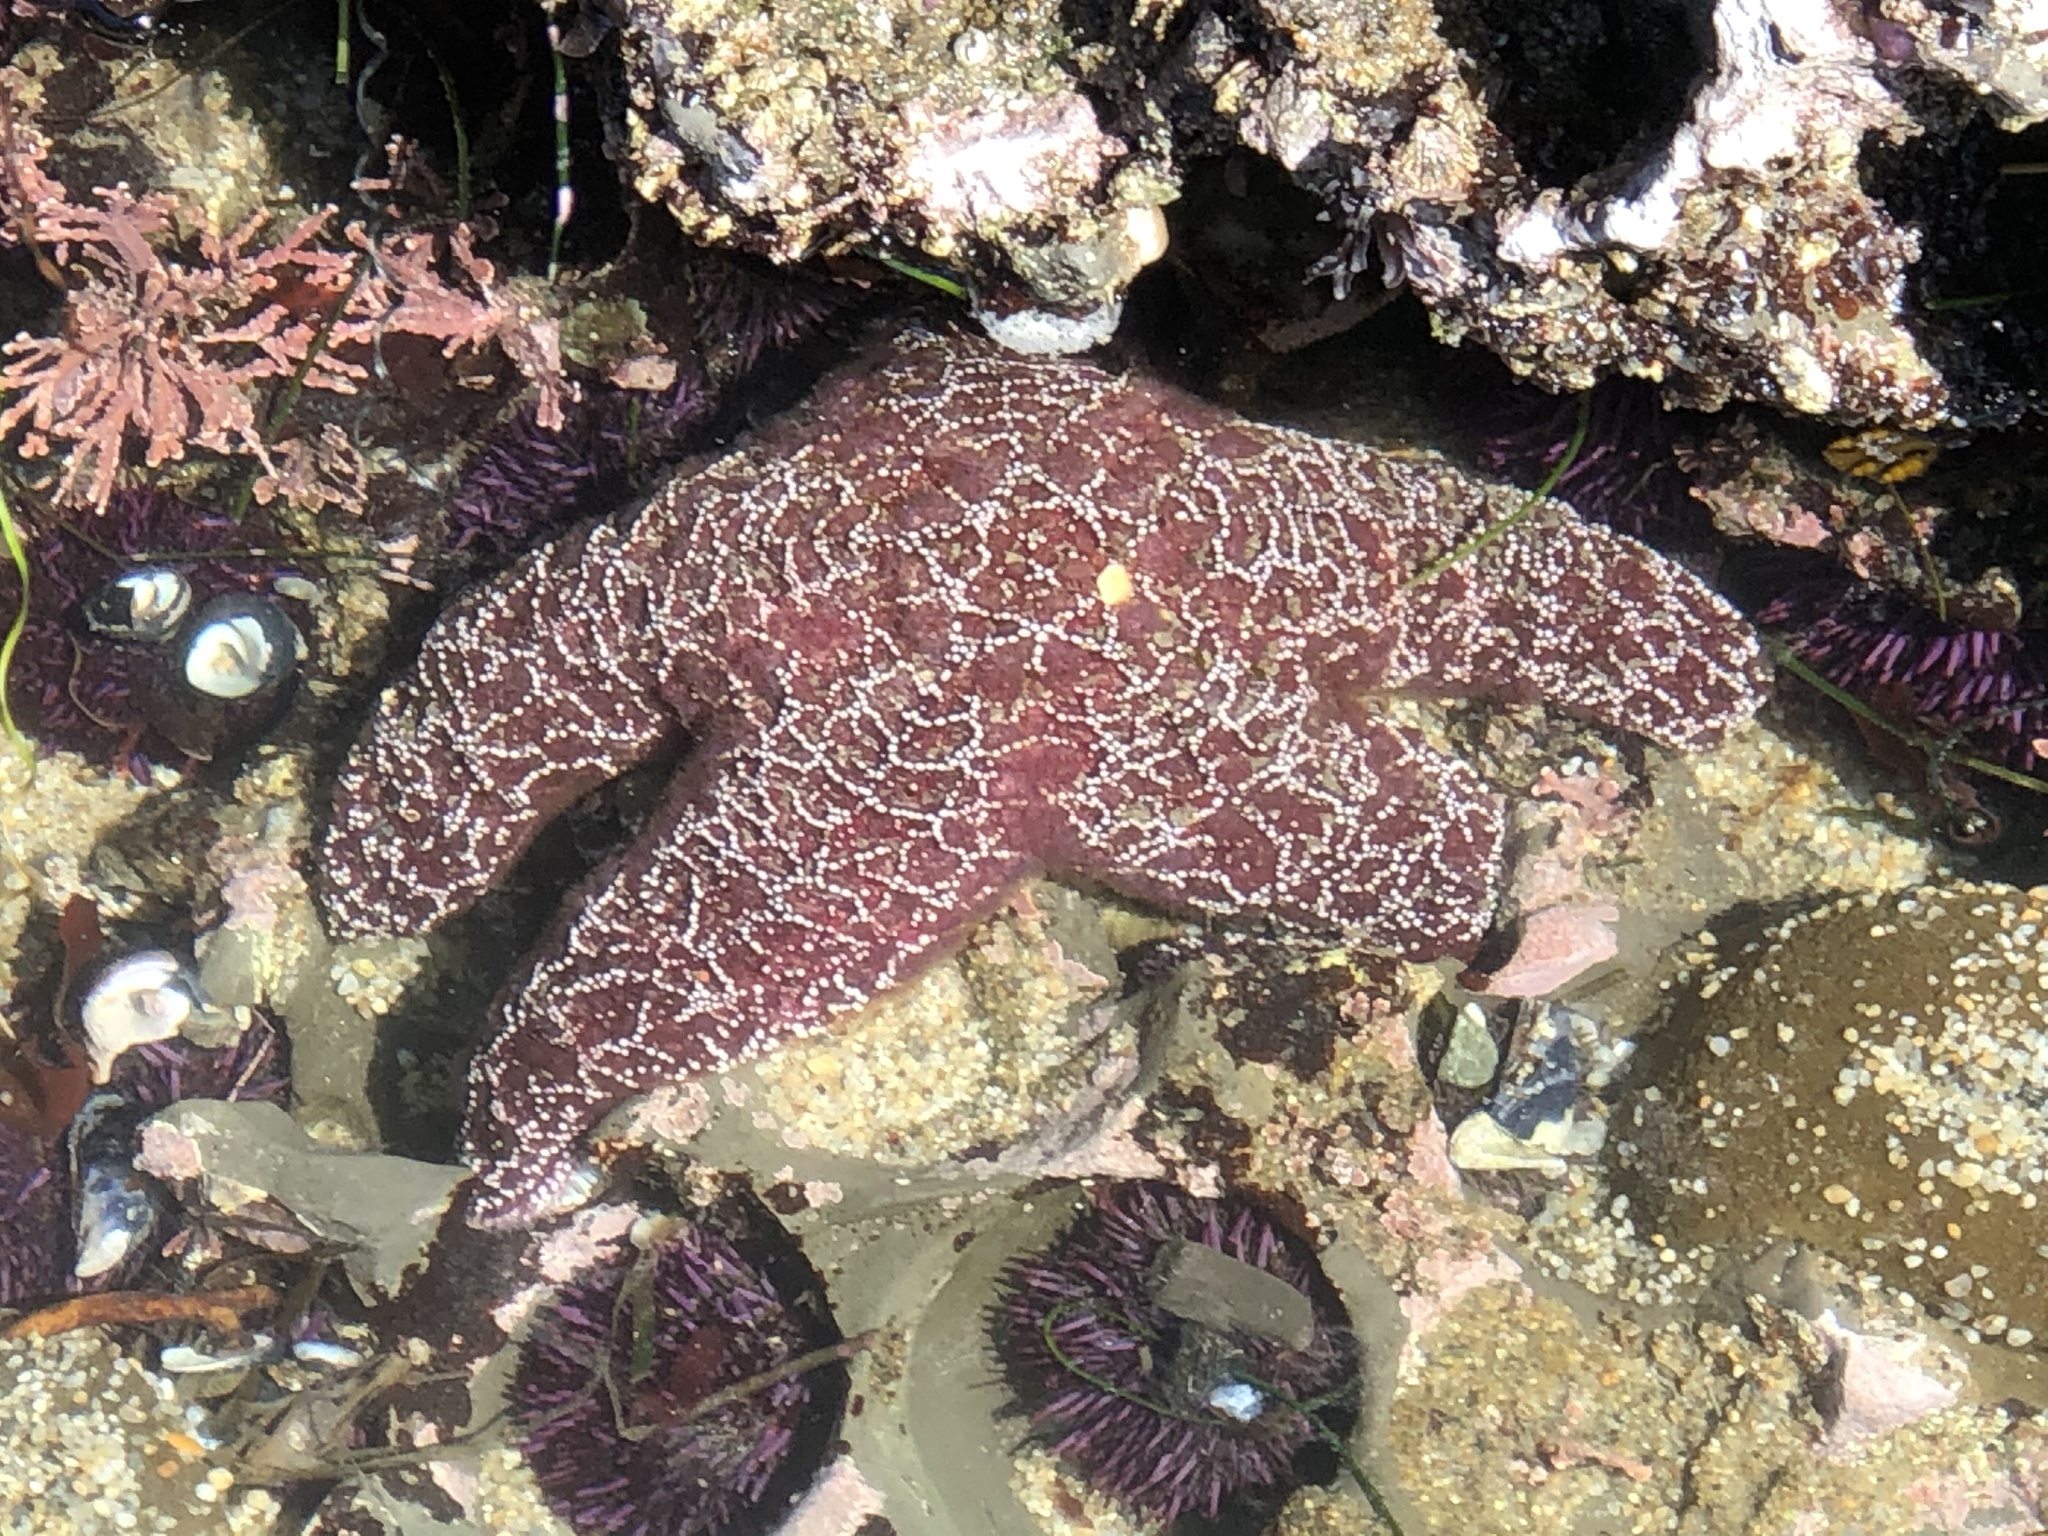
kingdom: Animalia
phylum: Echinodermata
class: Asteroidea
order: Forcipulatida
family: Asteriidae
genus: Pisaster
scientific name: Pisaster ochraceus
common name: Ochre stars
